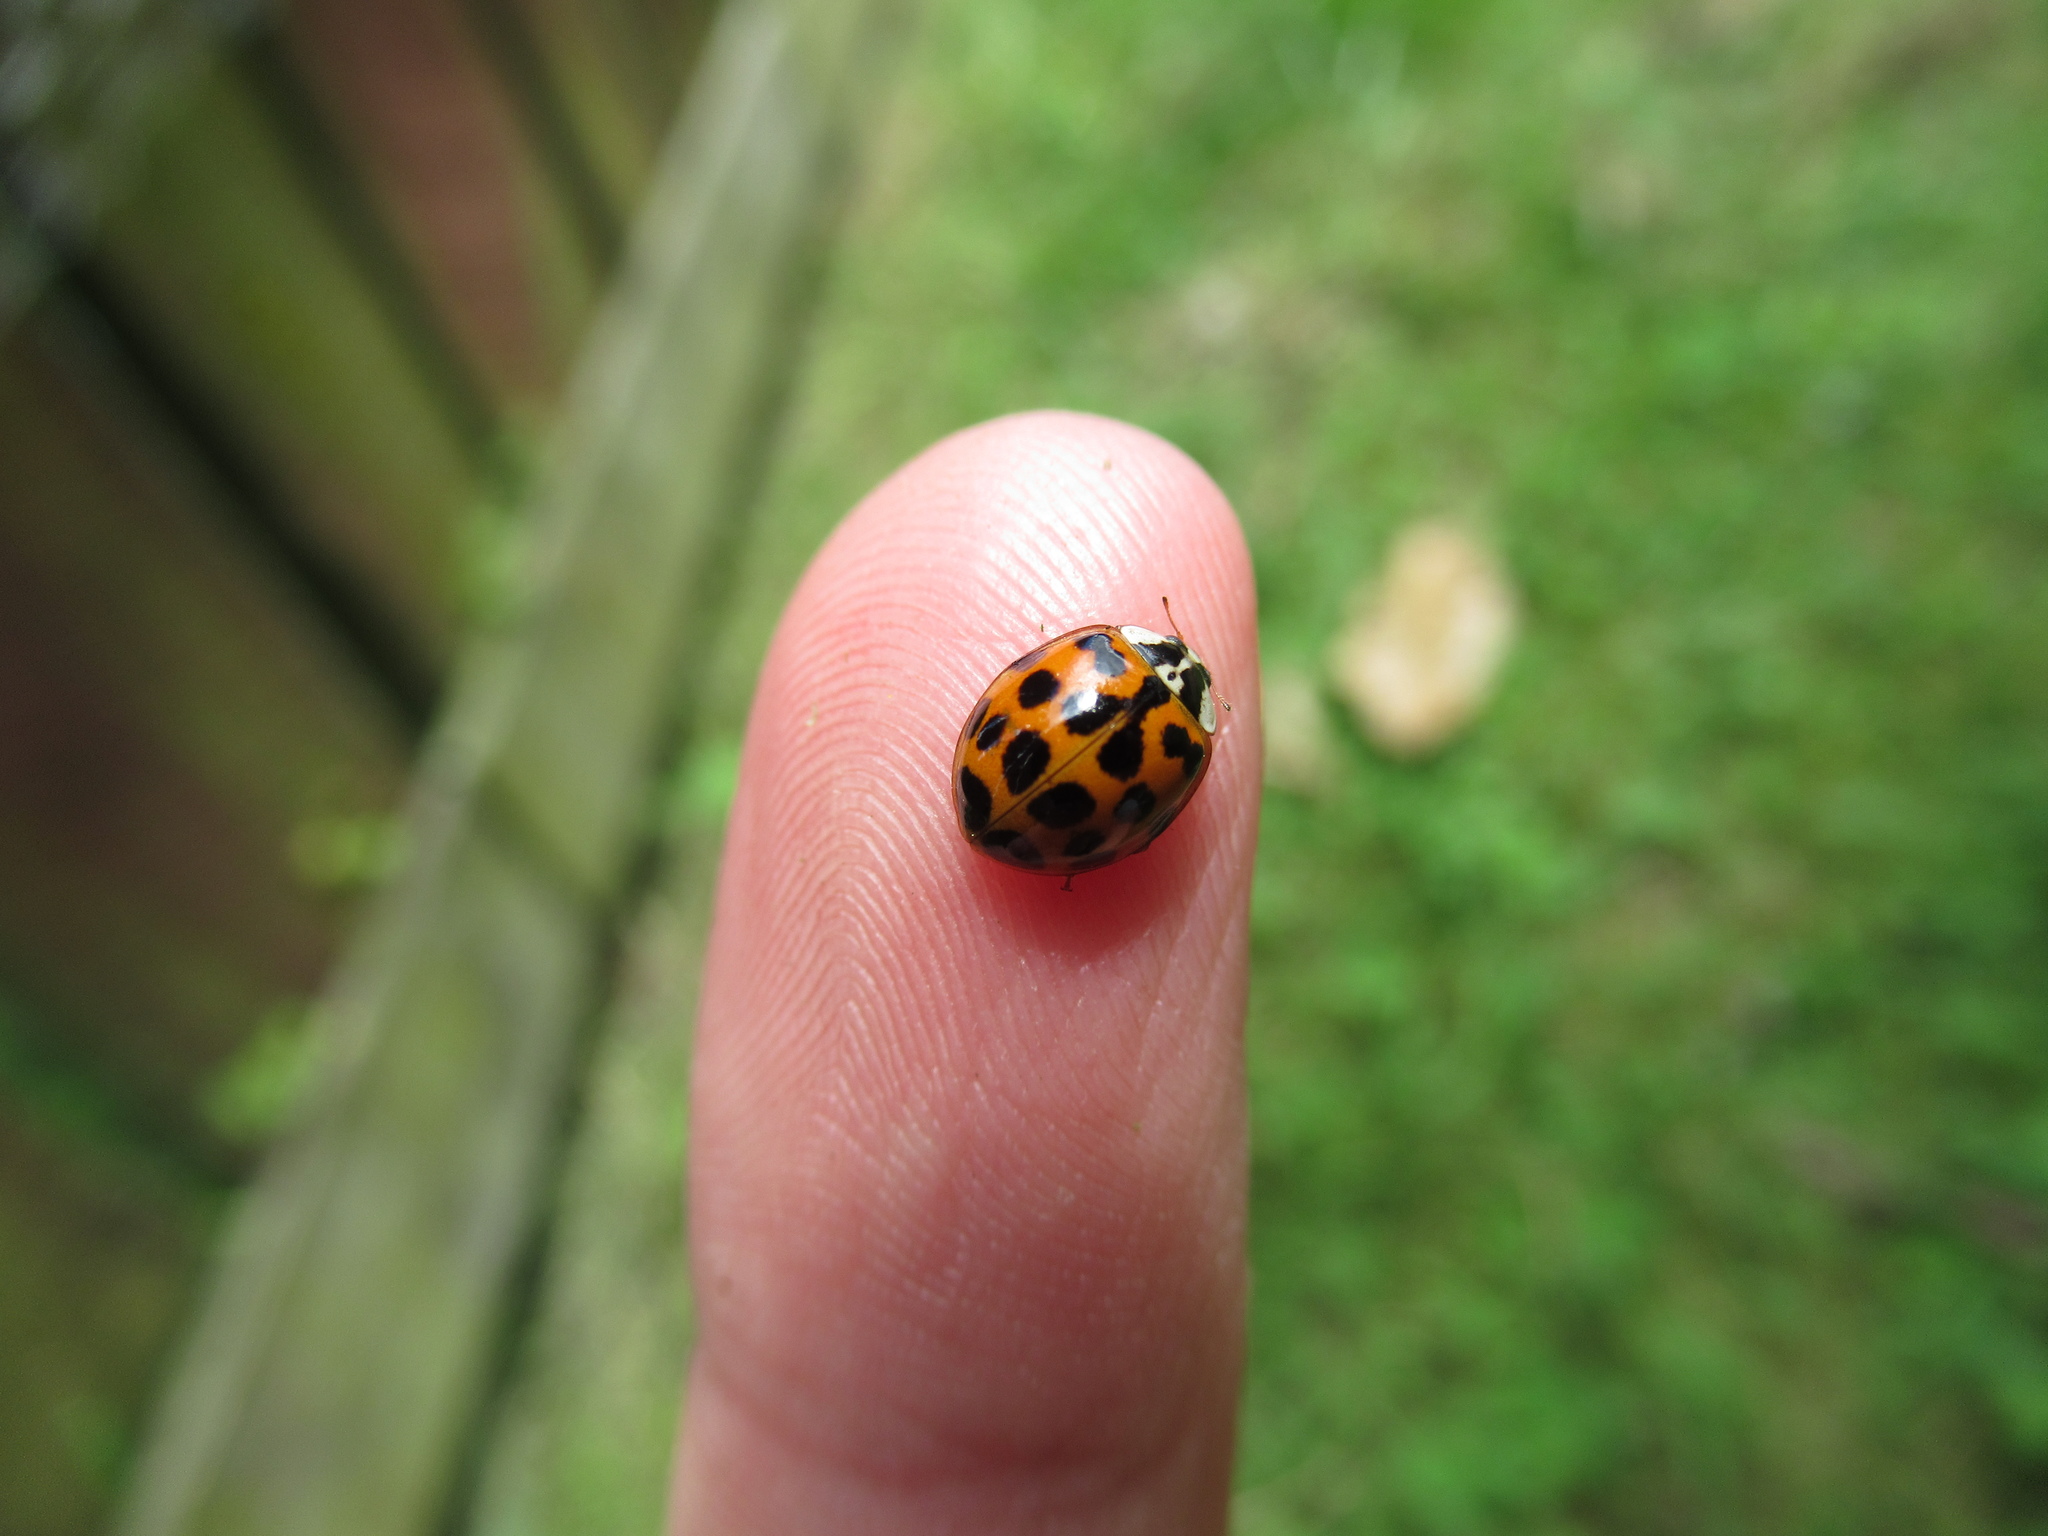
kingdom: Animalia
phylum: Arthropoda
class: Insecta
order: Coleoptera
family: Coccinellidae
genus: Harmonia
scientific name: Harmonia axyridis
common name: Harlequin ladybird
